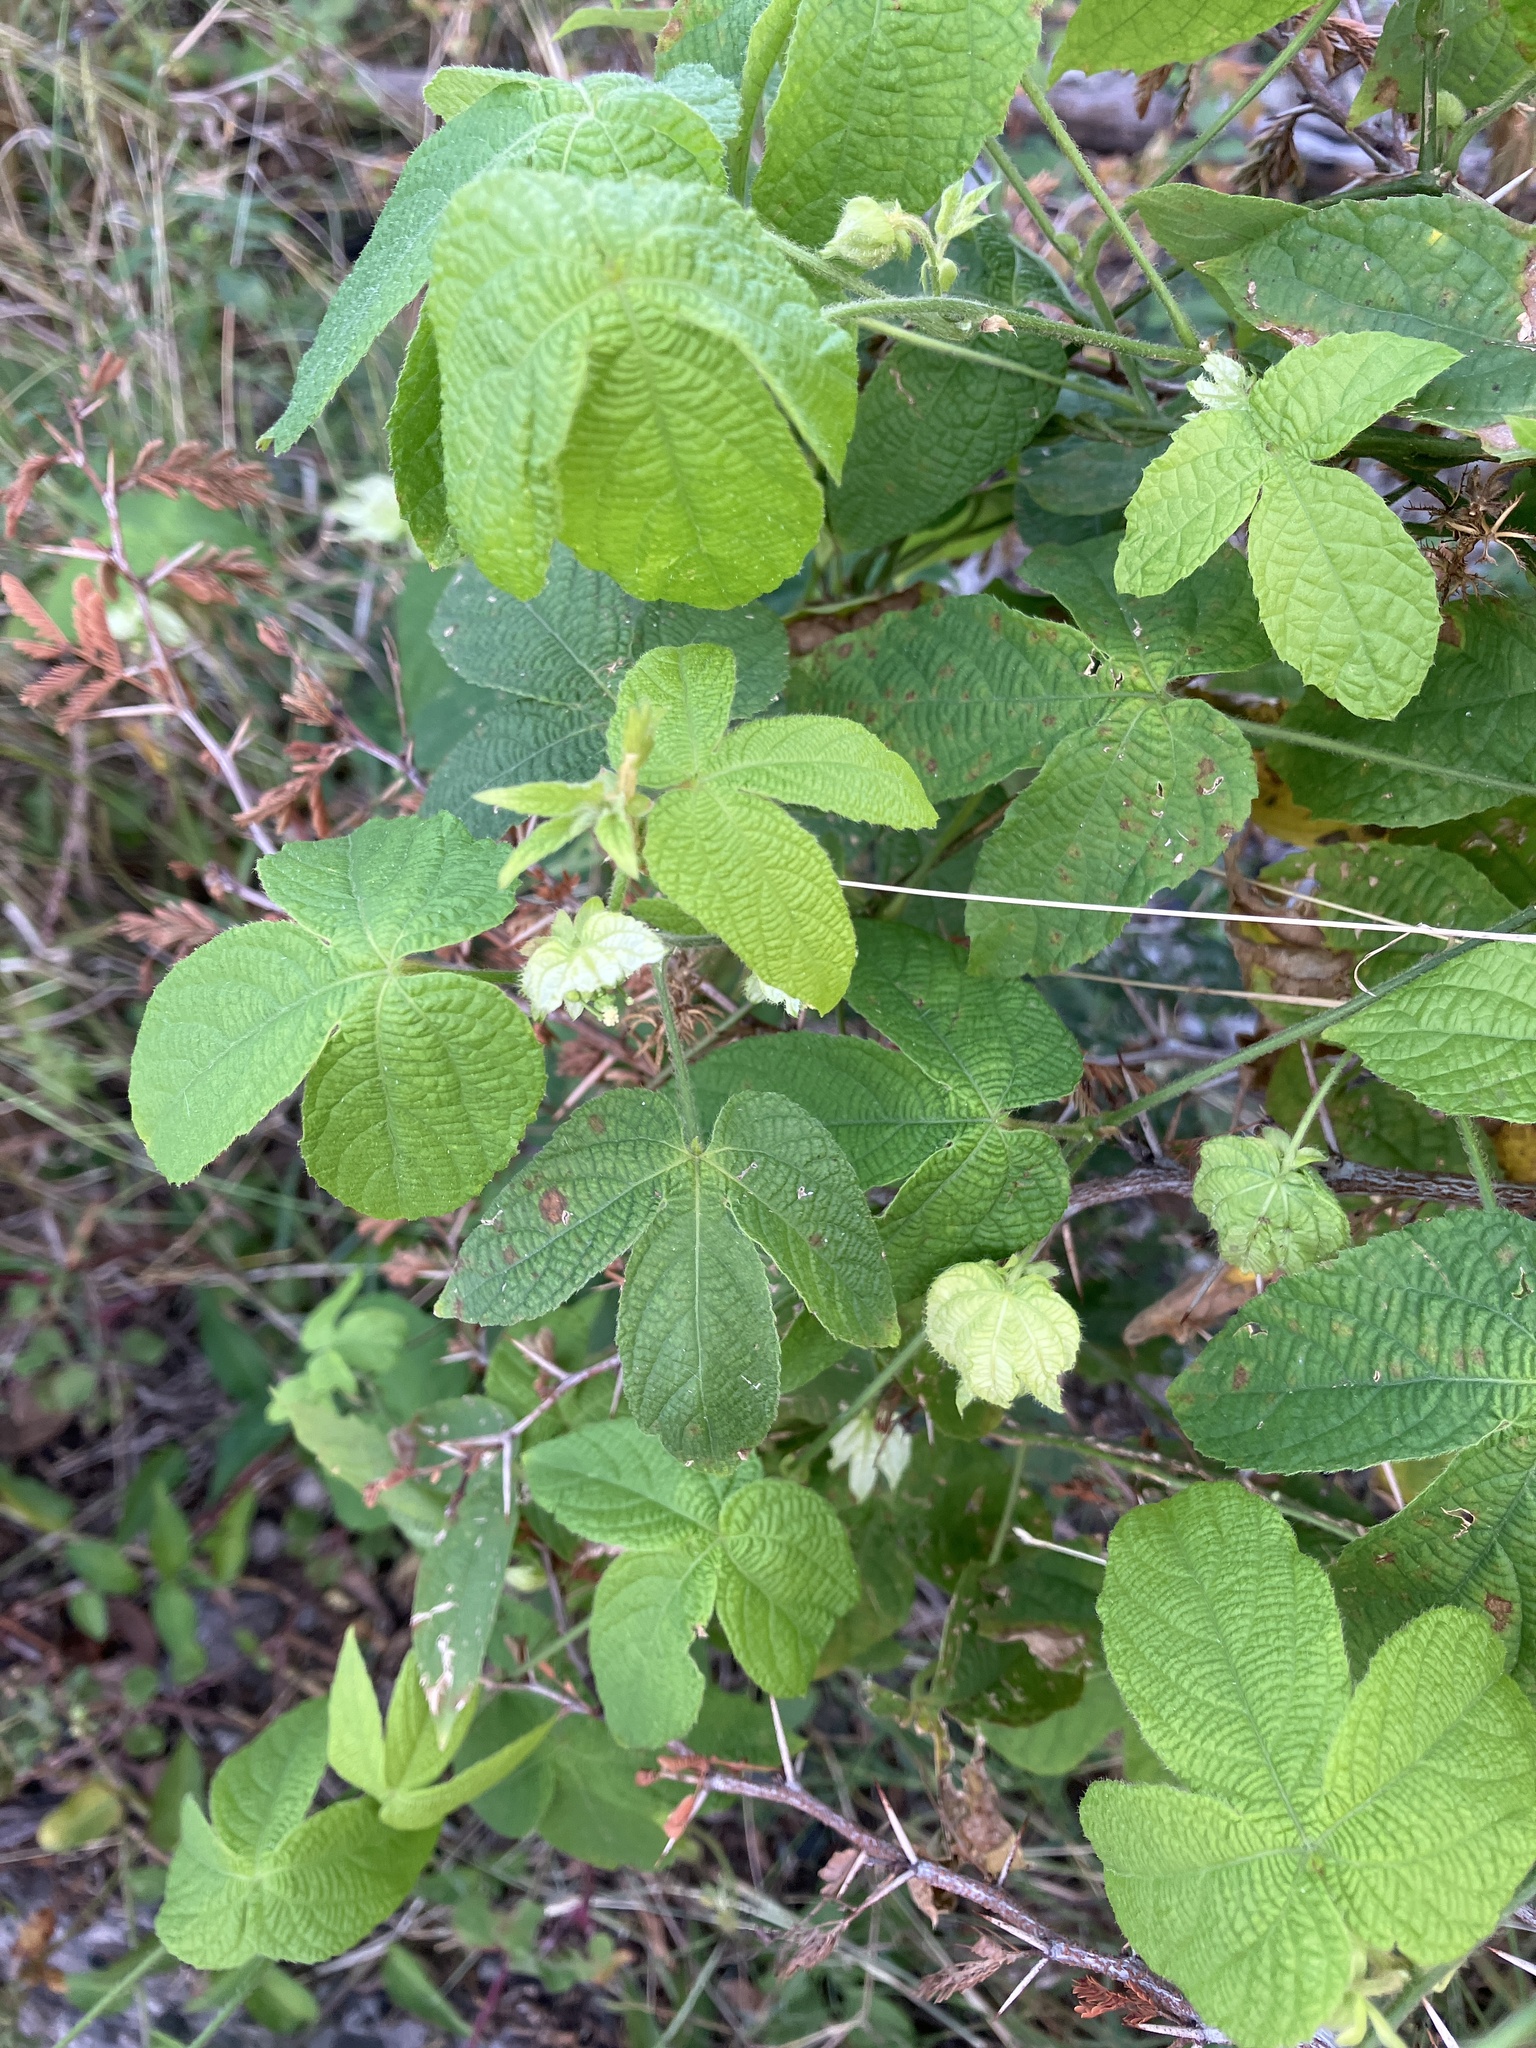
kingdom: Plantae
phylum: Tracheophyta
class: Magnoliopsida
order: Malpighiales
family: Euphorbiaceae
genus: Dalechampia
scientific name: Dalechampia scandens
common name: Spurgecreeper
